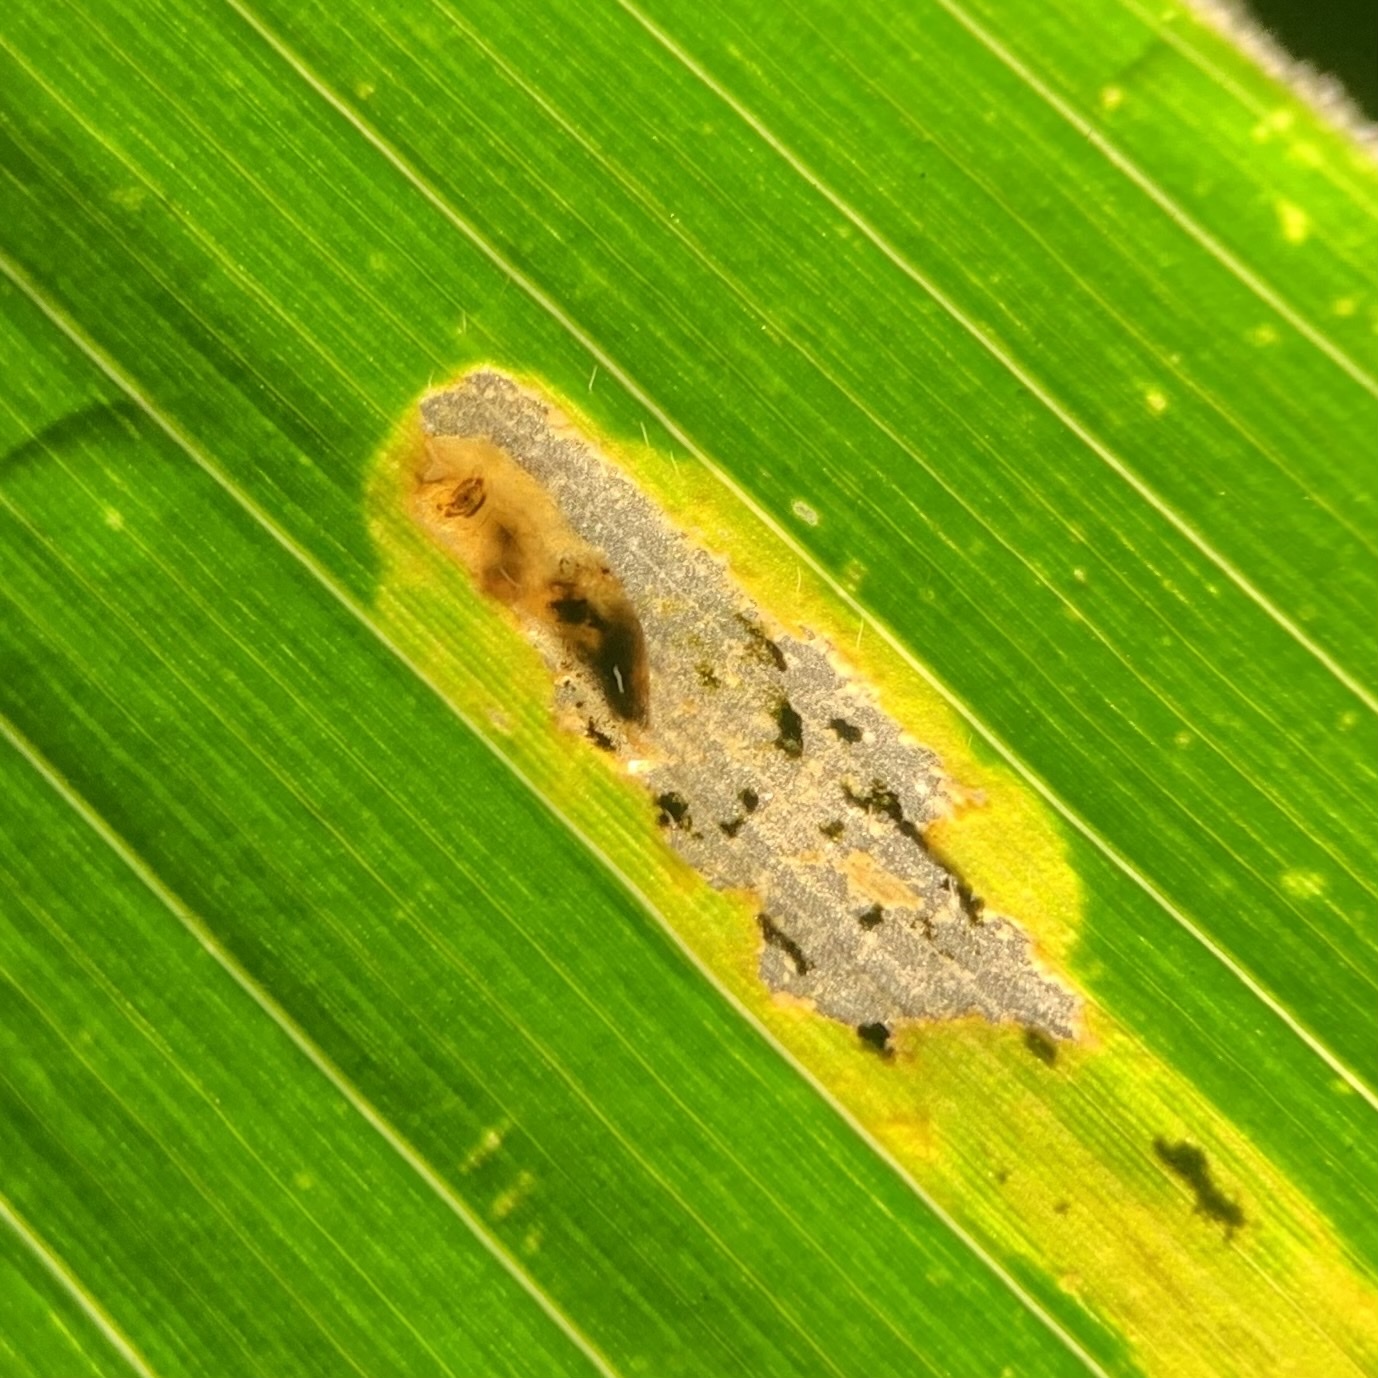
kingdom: Animalia
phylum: Arthropoda
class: Insecta
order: Diptera
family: Agromyzidae
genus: Agromyza
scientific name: Agromyza parvicornis
